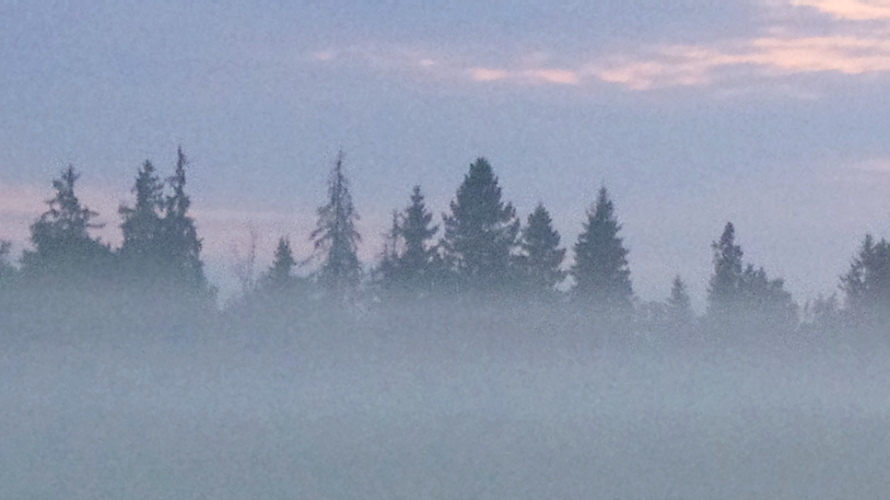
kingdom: Plantae
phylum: Tracheophyta
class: Pinopsida
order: Pinales
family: Pinaceae
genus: Picea
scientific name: Picea abies
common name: Norway spruce
